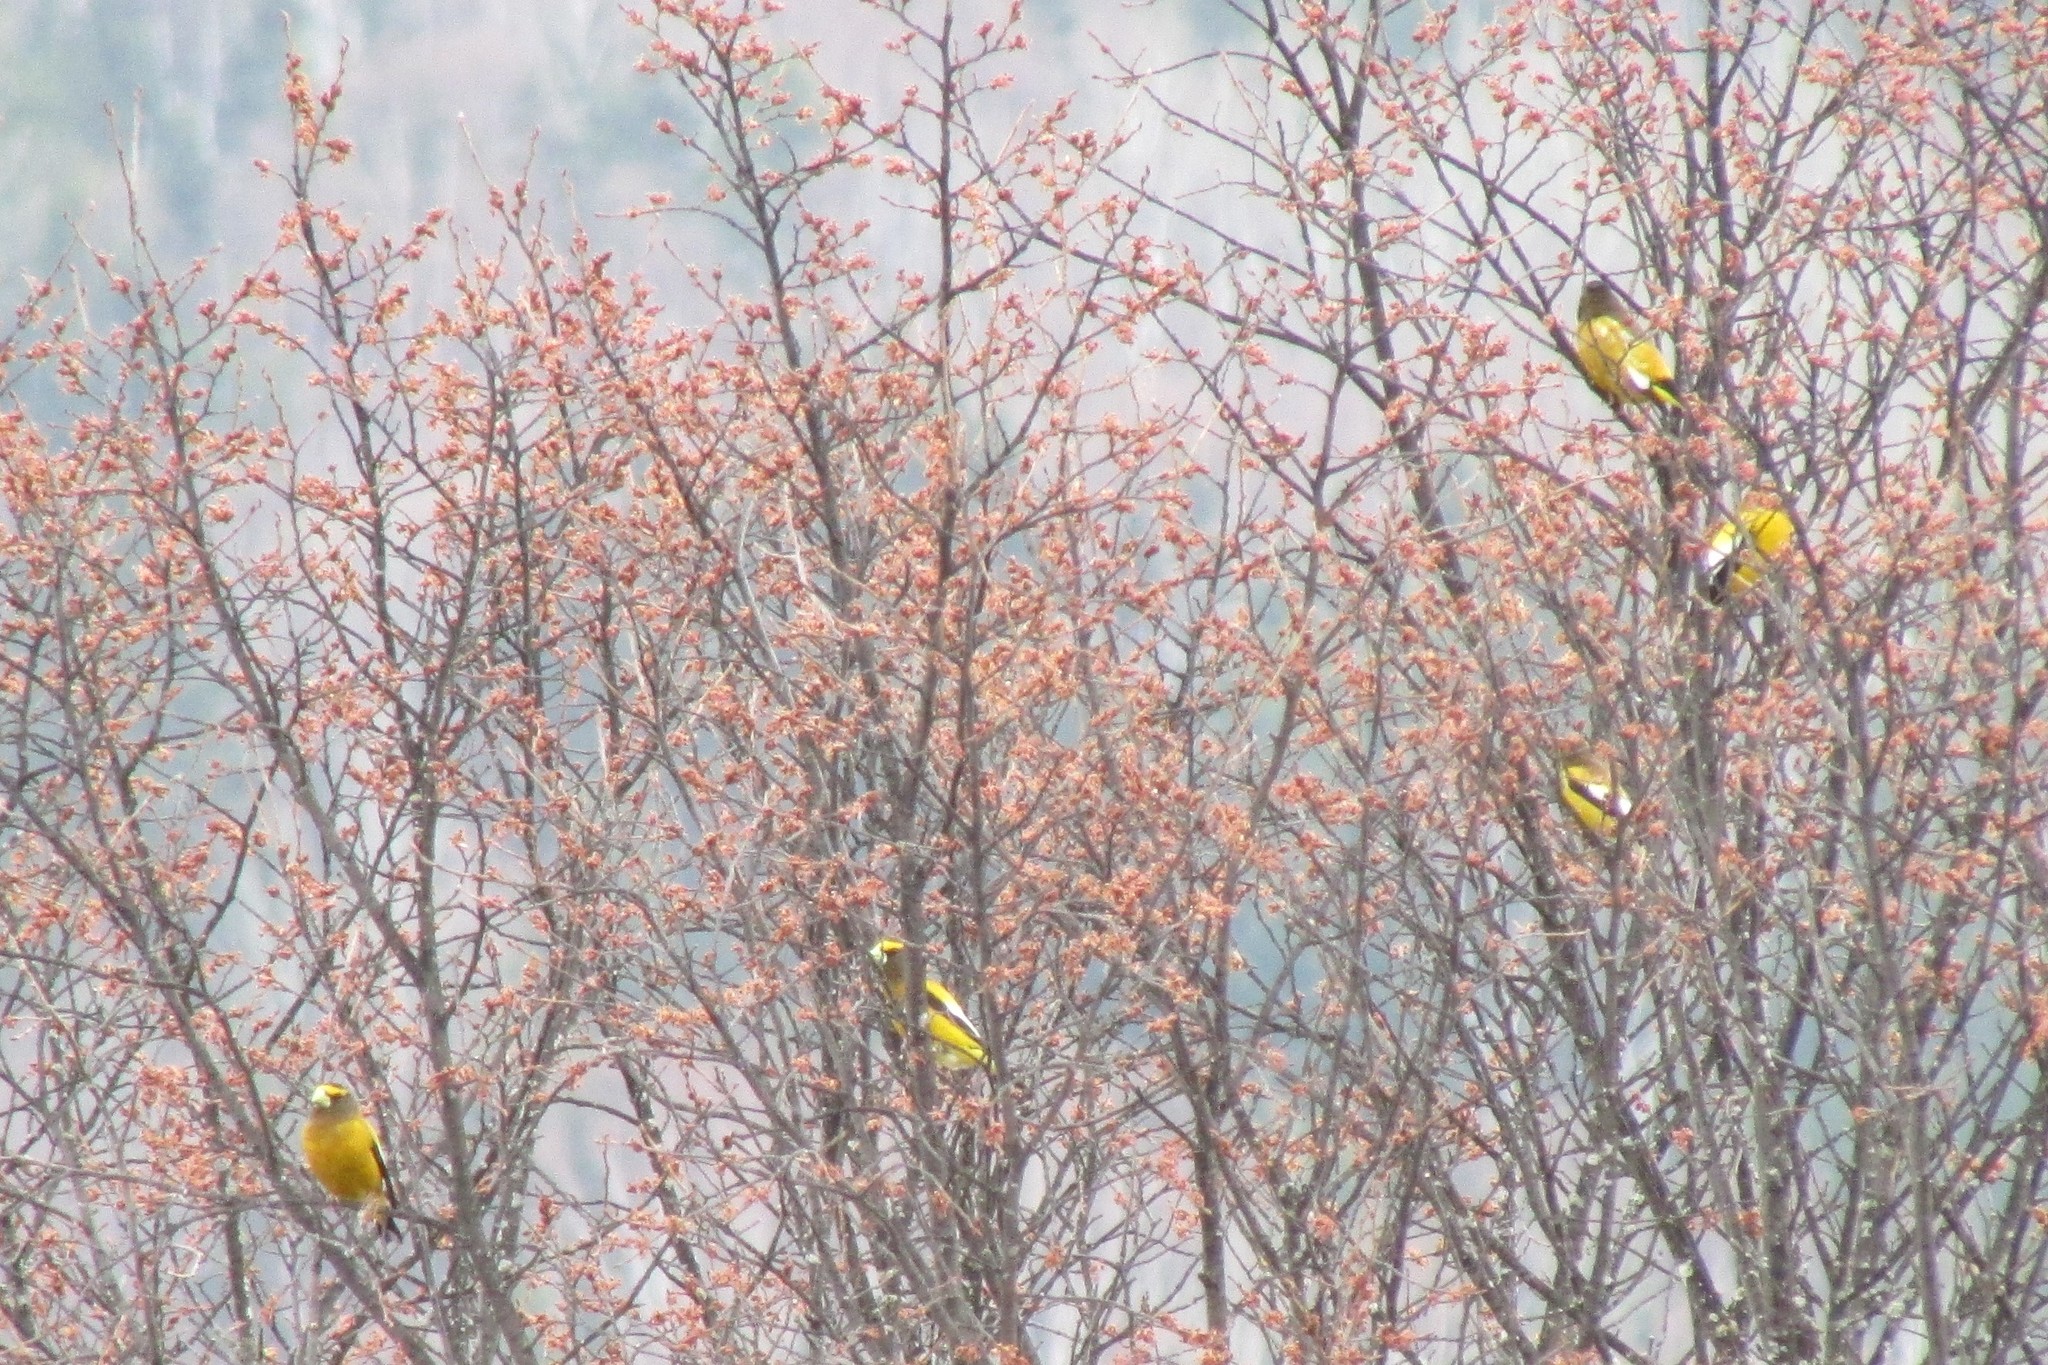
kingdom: Animalia
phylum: Chordata
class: Aves
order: Passeriformes
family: Fringillidae
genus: Hesperiphona
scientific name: Hesperiphona vespertina
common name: Evening grosbeak
